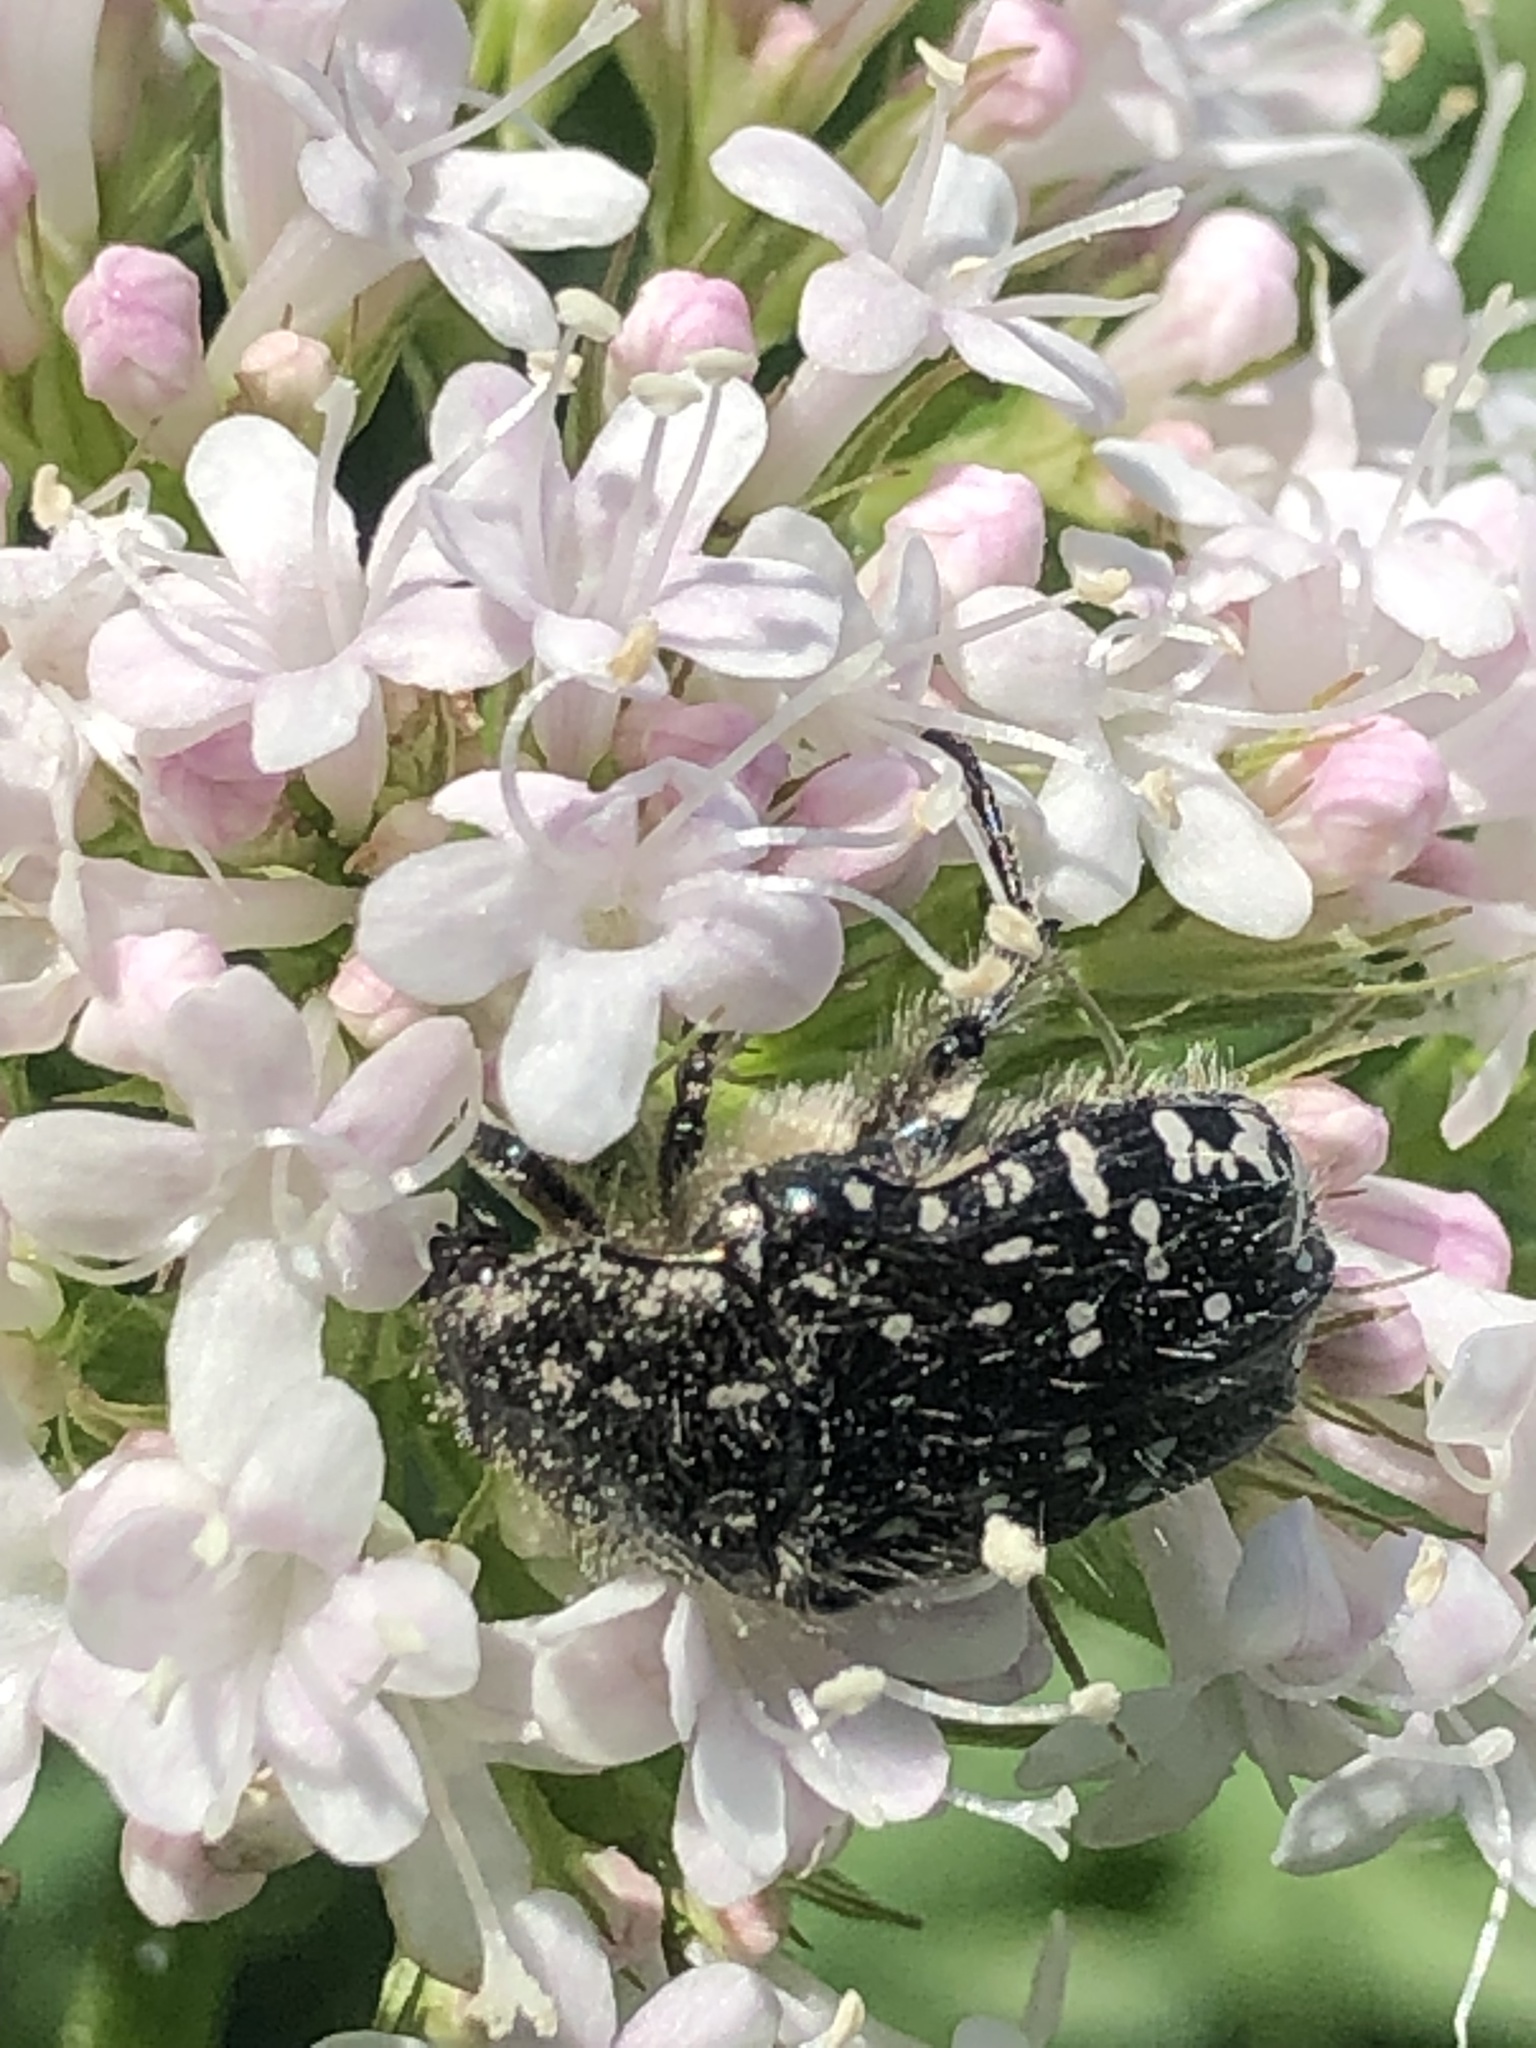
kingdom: Animalia
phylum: Arthropoda
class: Insecta
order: Coleoptera
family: Scarabaeidae
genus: Oxythyrea
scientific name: Oxythyrea funesta
